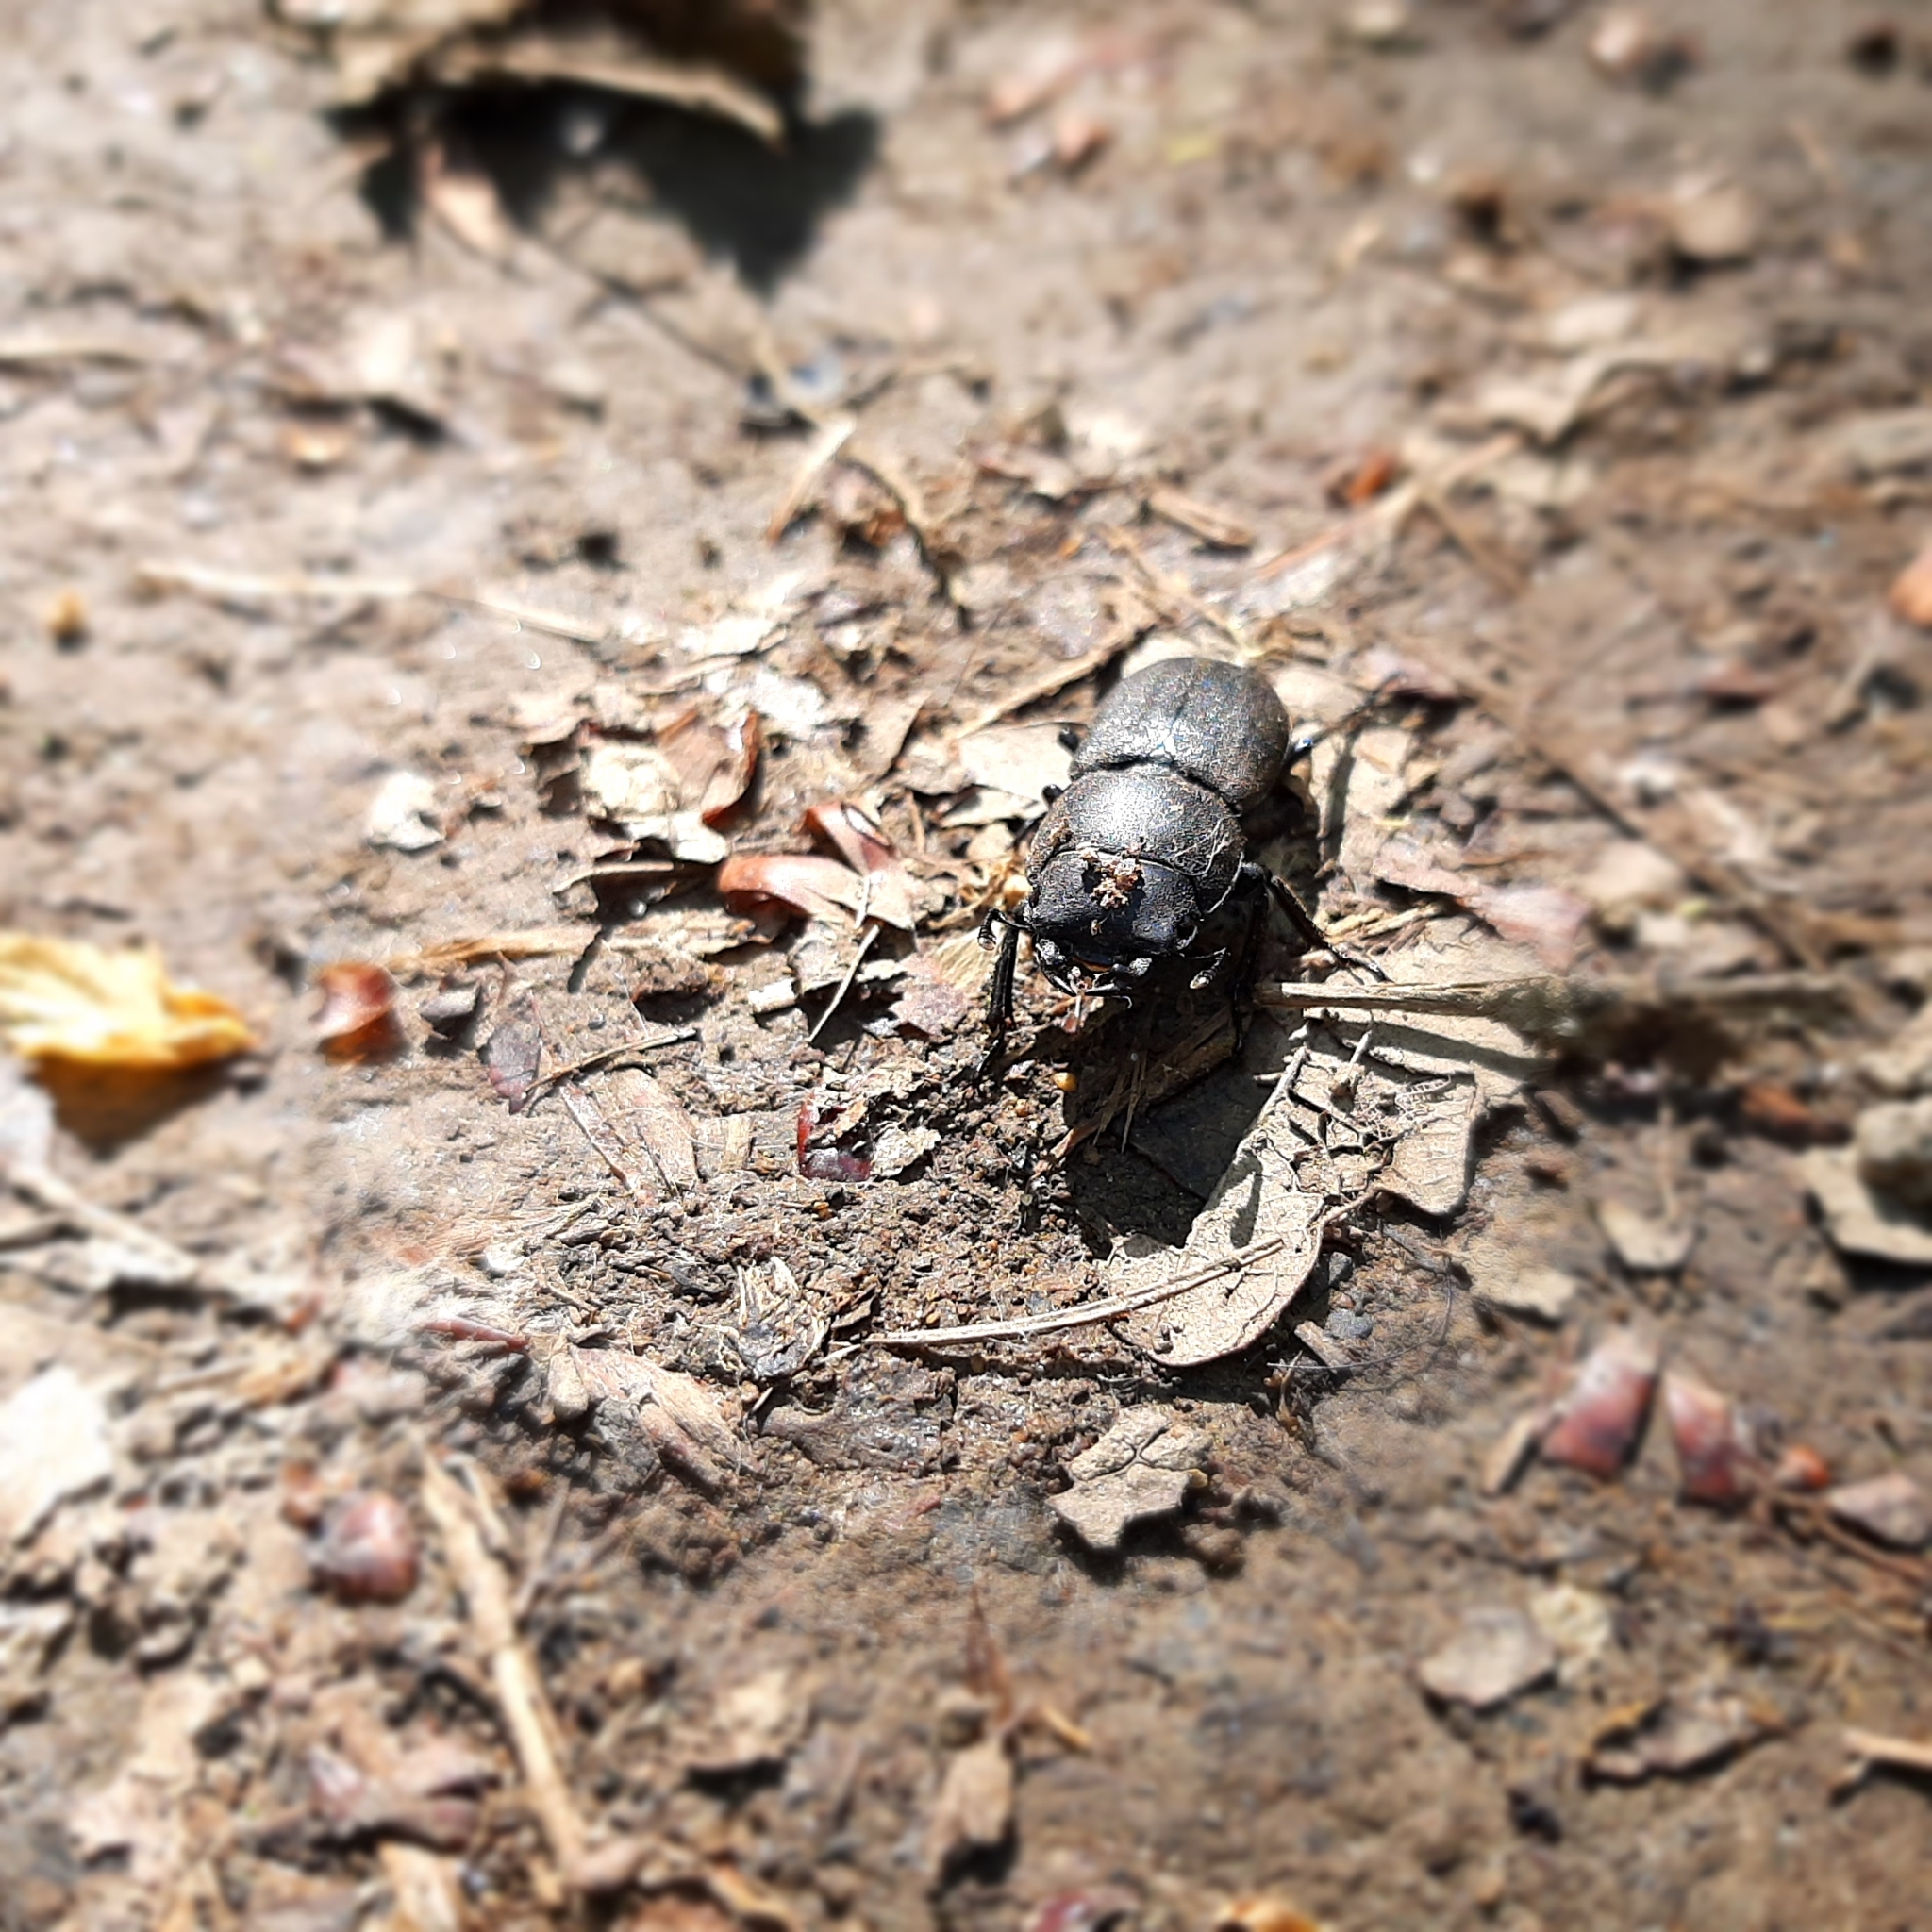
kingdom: Animalia
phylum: Arthropoda
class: Insecta
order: Coleoptera
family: Lucanidae
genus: Dorcus
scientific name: Dorcus parallelipipedus
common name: Lesser stag beetle
